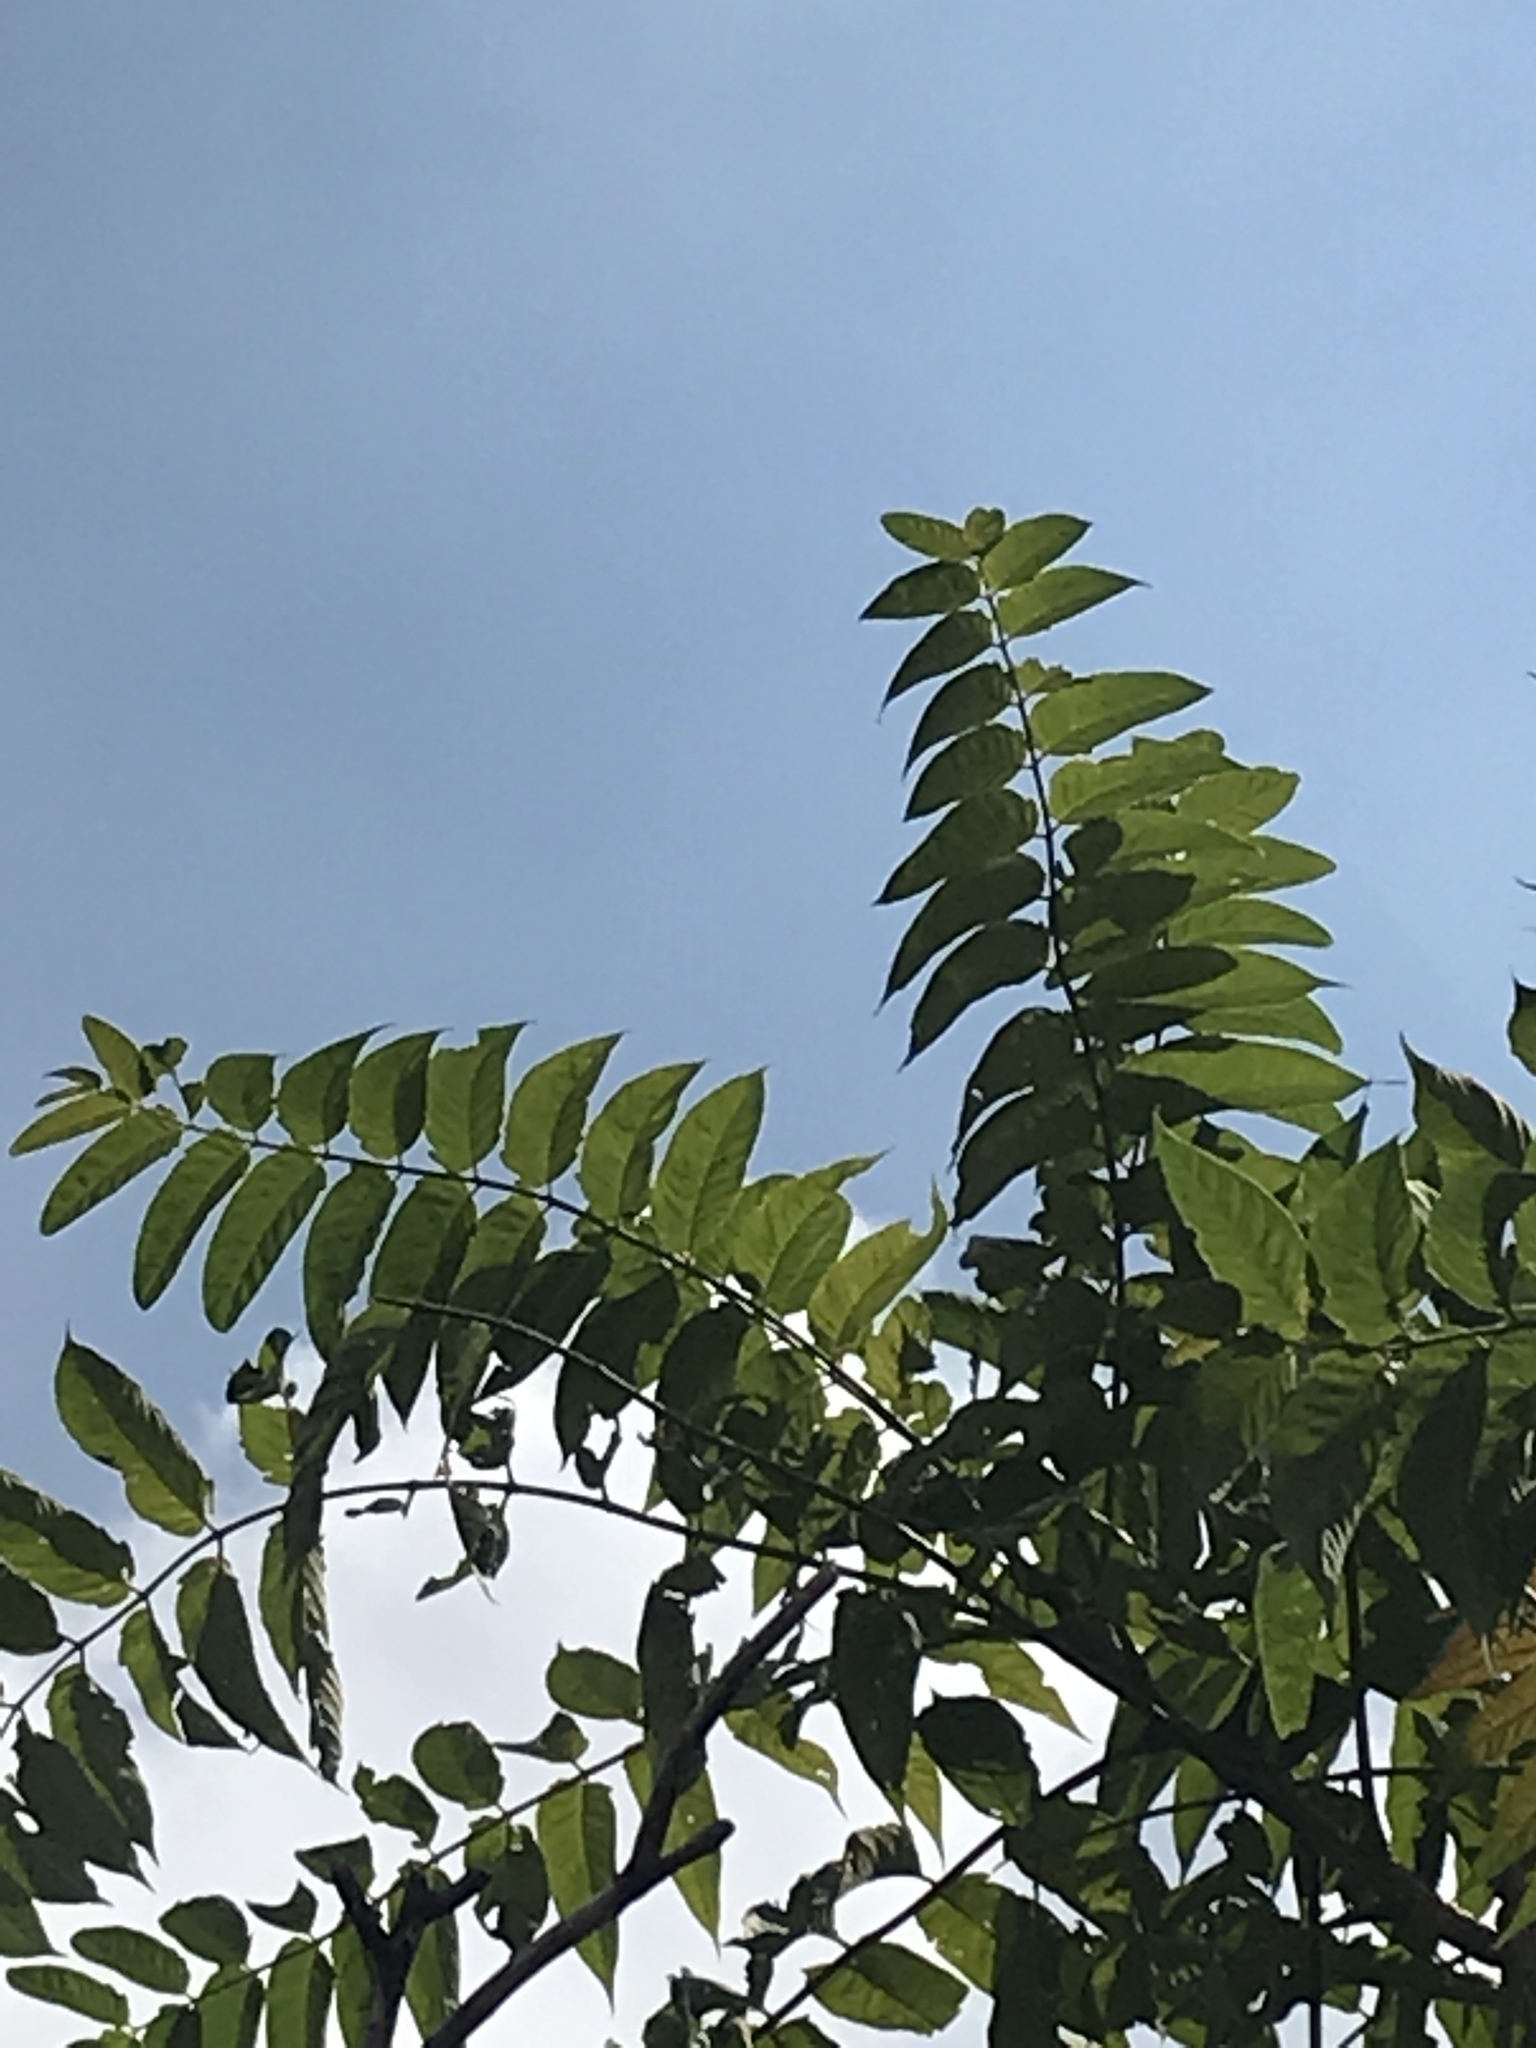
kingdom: Plantae
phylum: Tracheophyta
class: Magnoliopsida
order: Sapindales
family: Simaroubaceae
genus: Ailanthus
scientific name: Ailanthus altissima
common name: Tree-of-heaven
